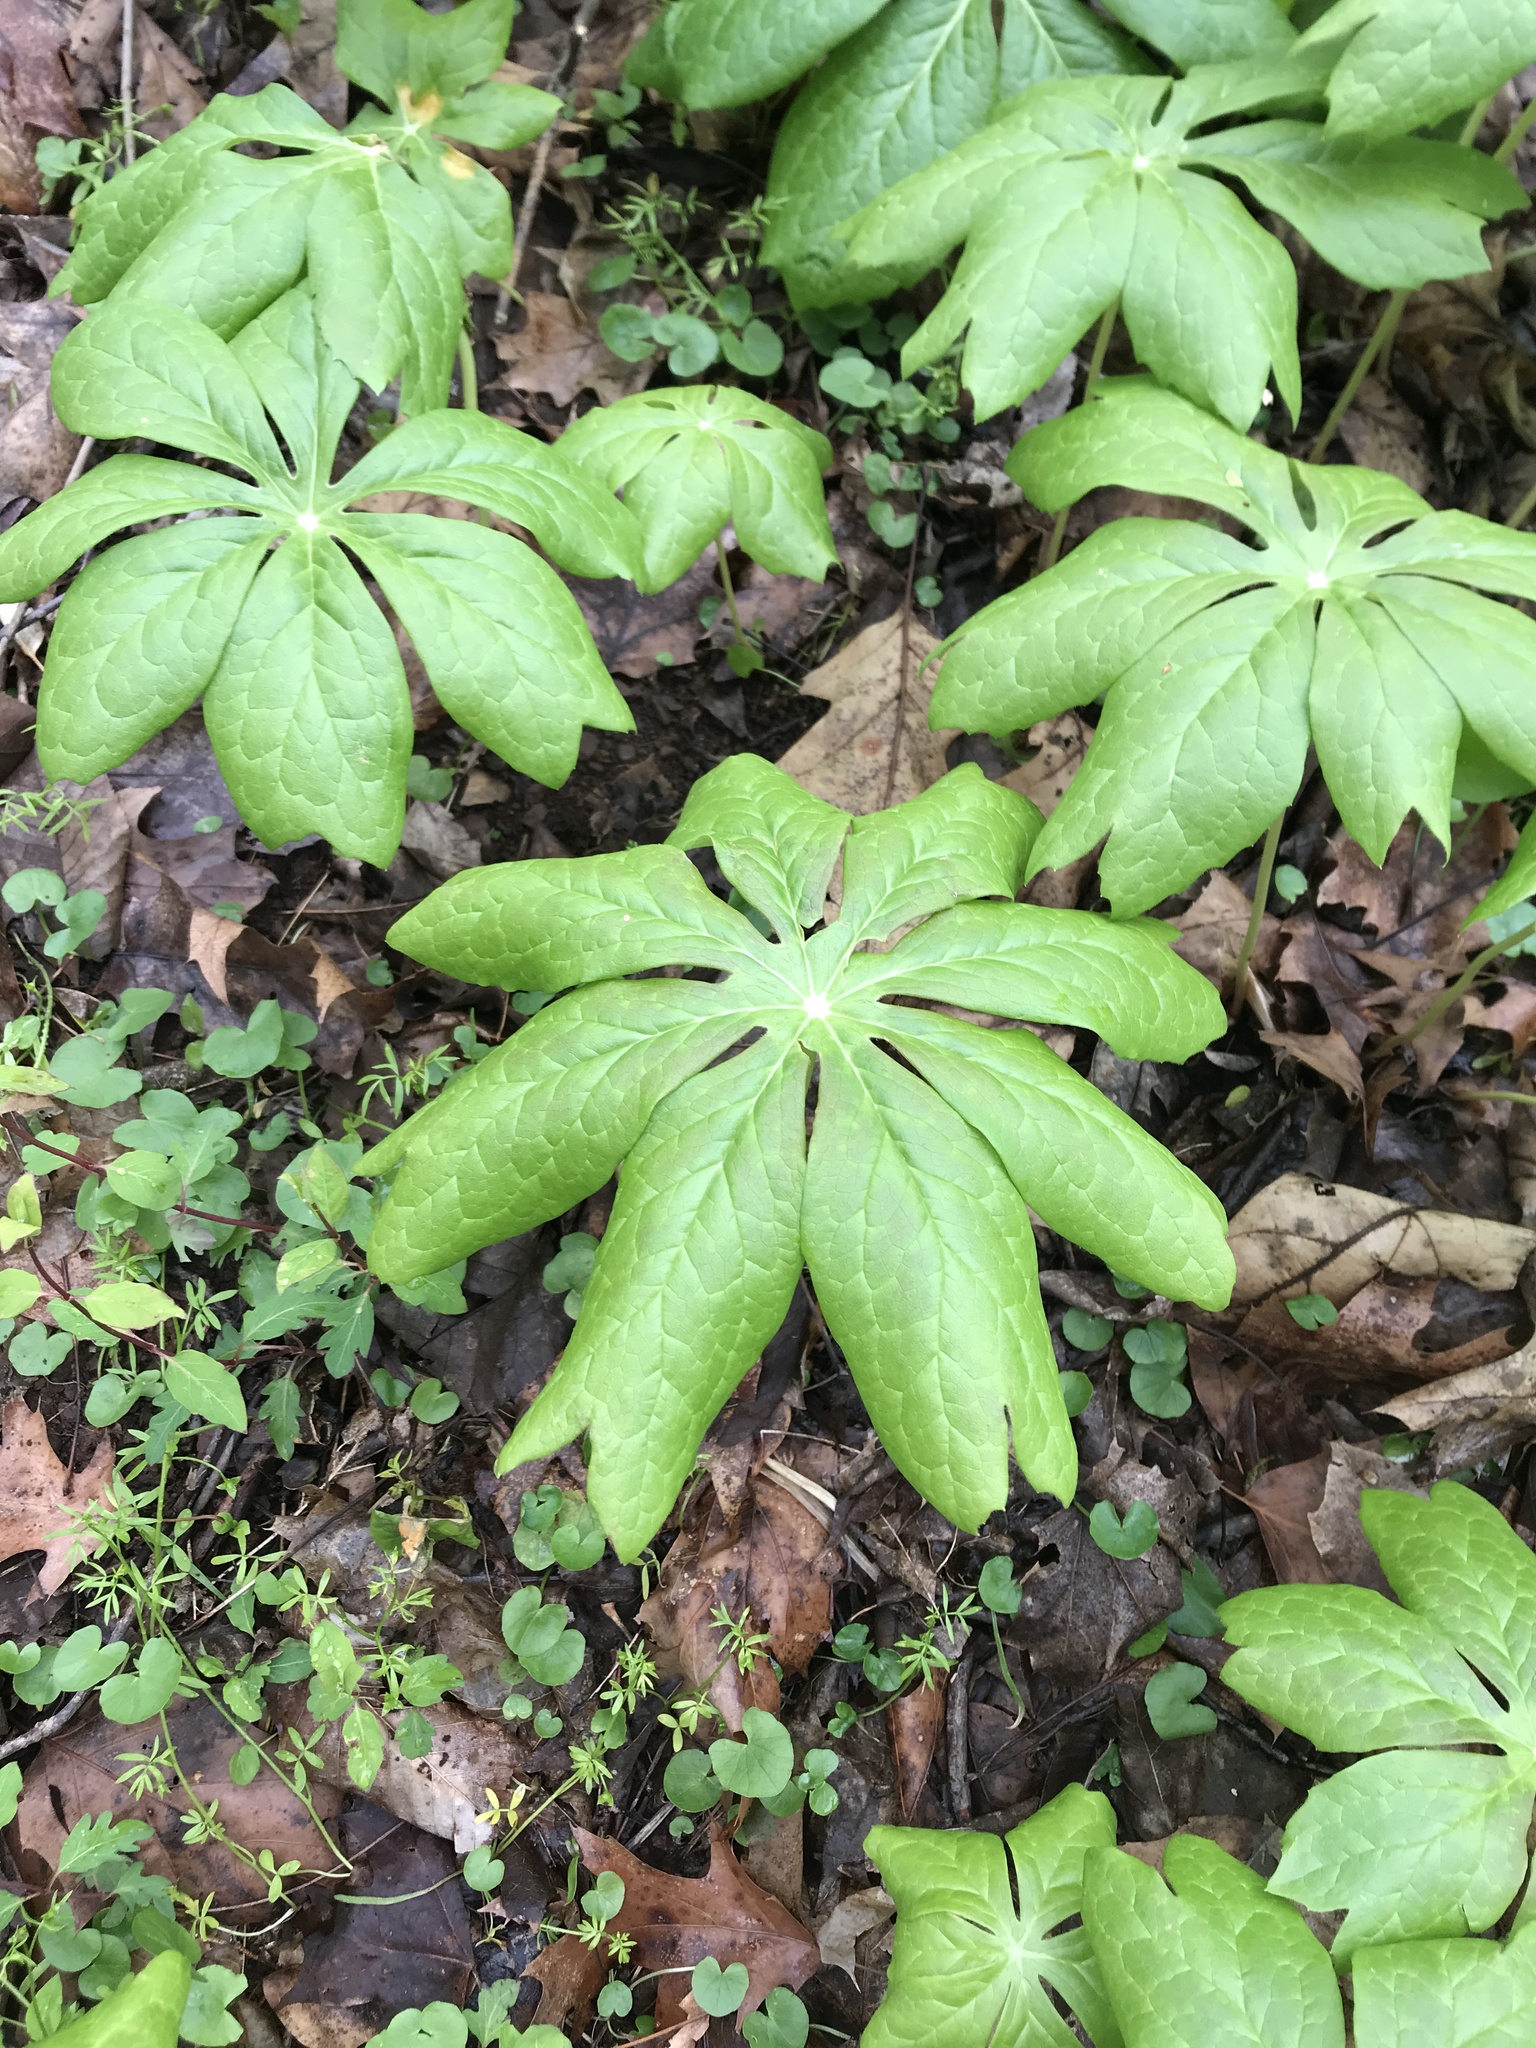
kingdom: Plantae
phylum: Tracheophyta
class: Magnoliopsida
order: Ranunculales
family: Berberidaceae
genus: Podophyllum
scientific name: Podophyllum peltatum
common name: Wild mandrake
